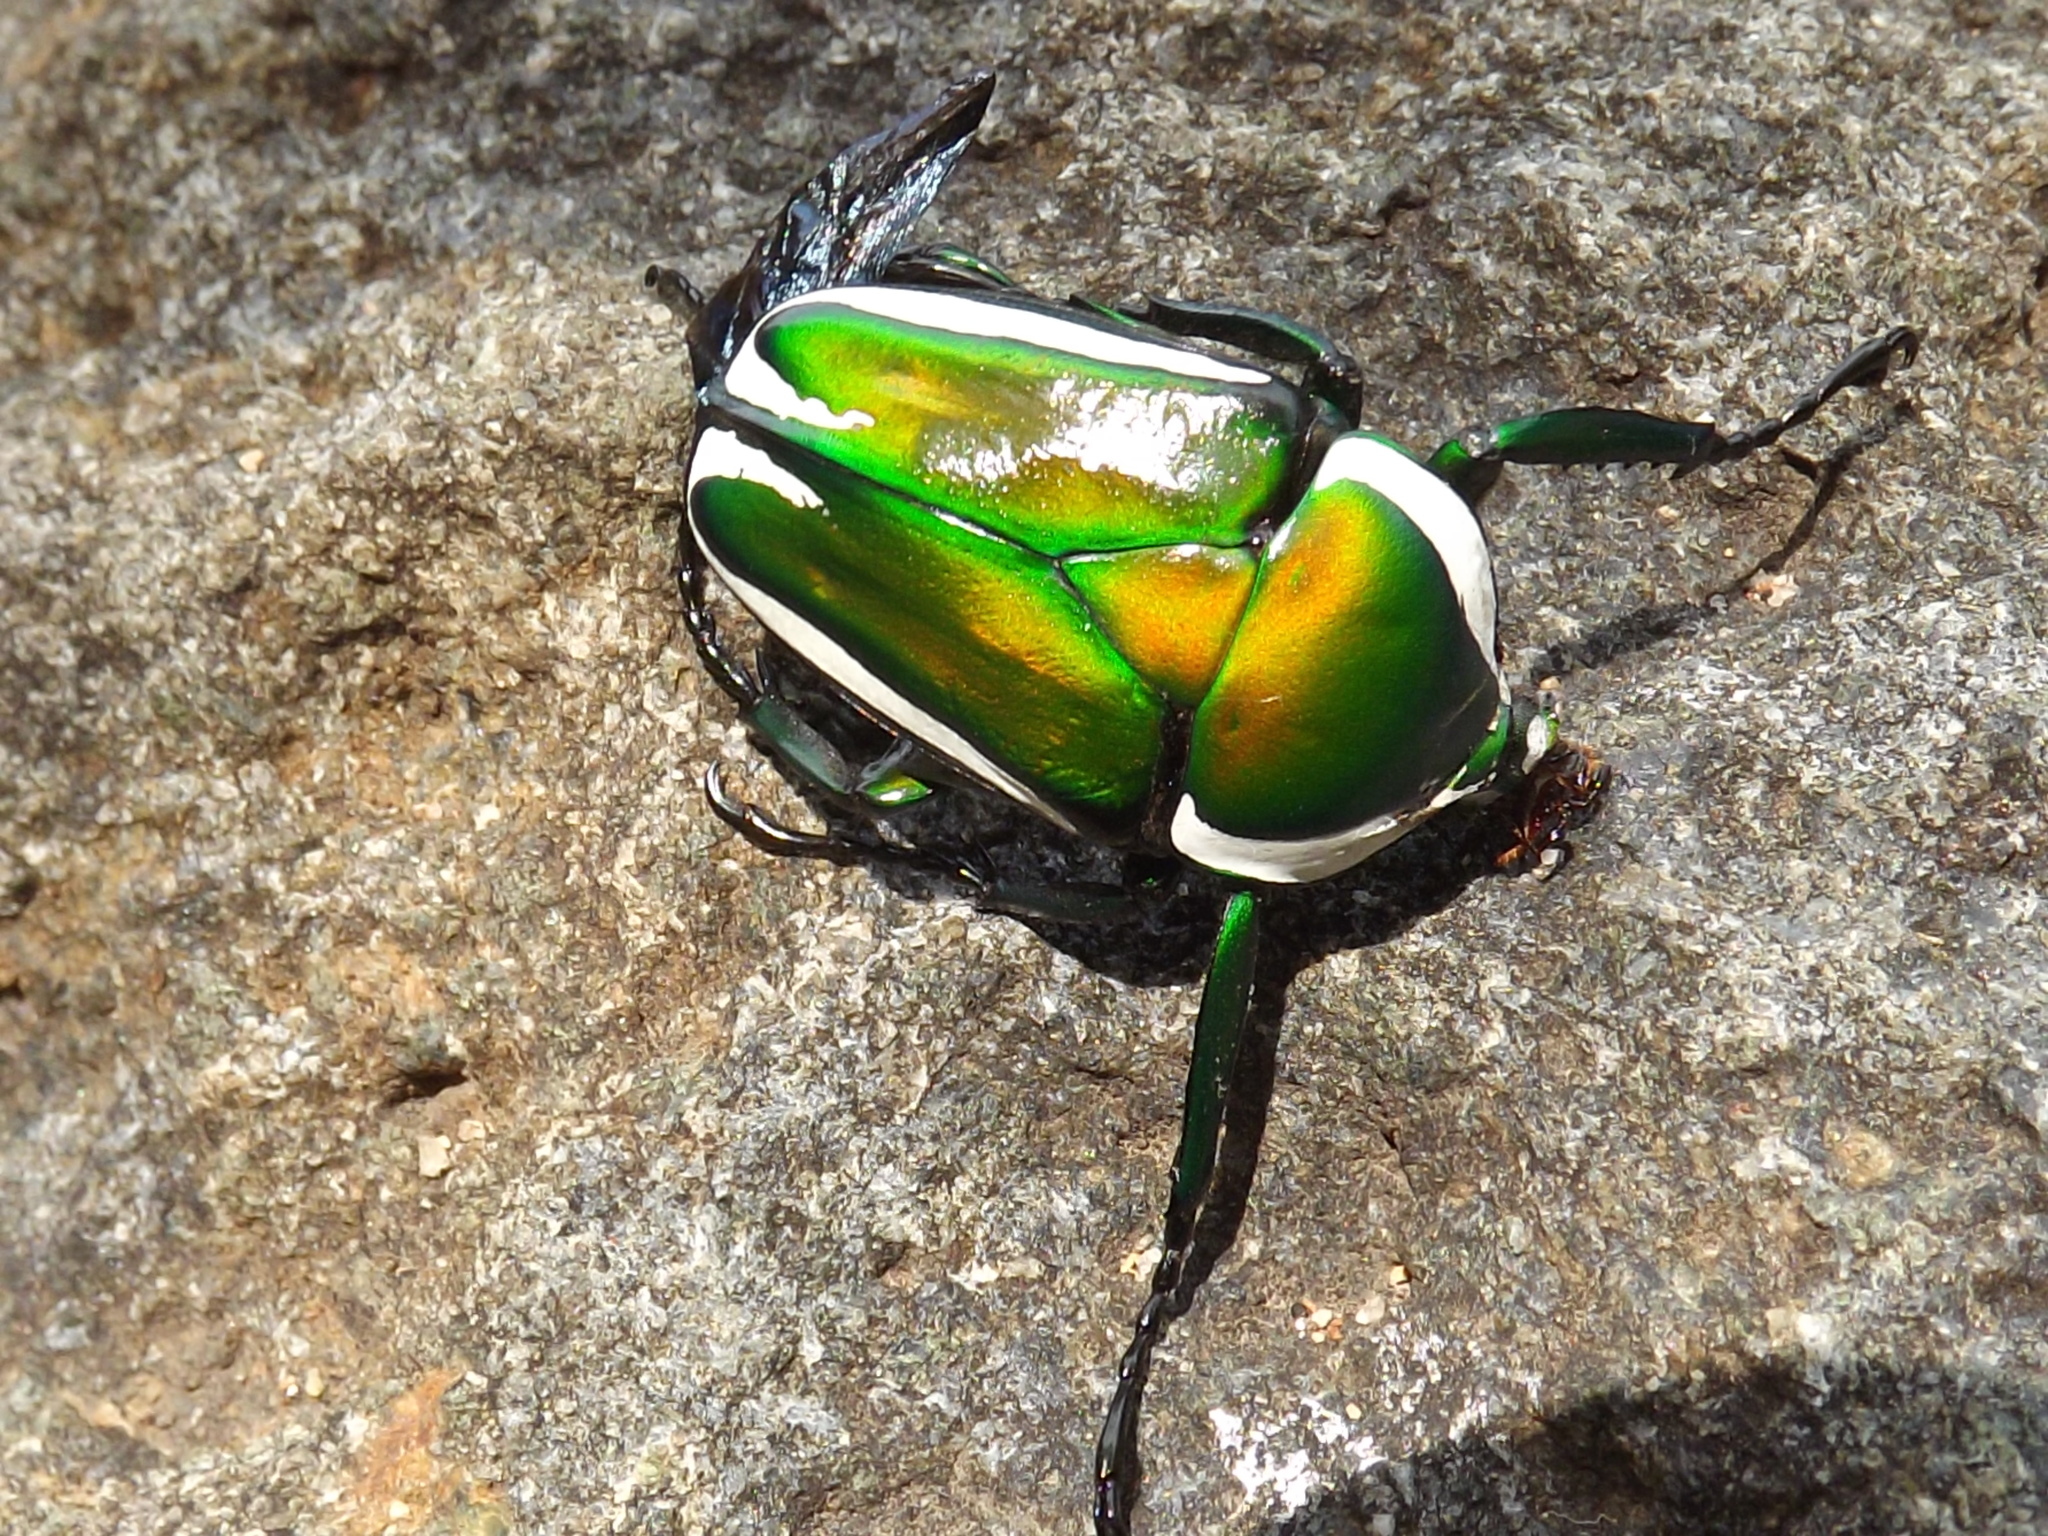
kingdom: Animalia
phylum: Arthropoda
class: Insecta
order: Coleoptera
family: Scarabaeidae
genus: Dicronorhina
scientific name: Dicronorhina derbyana
